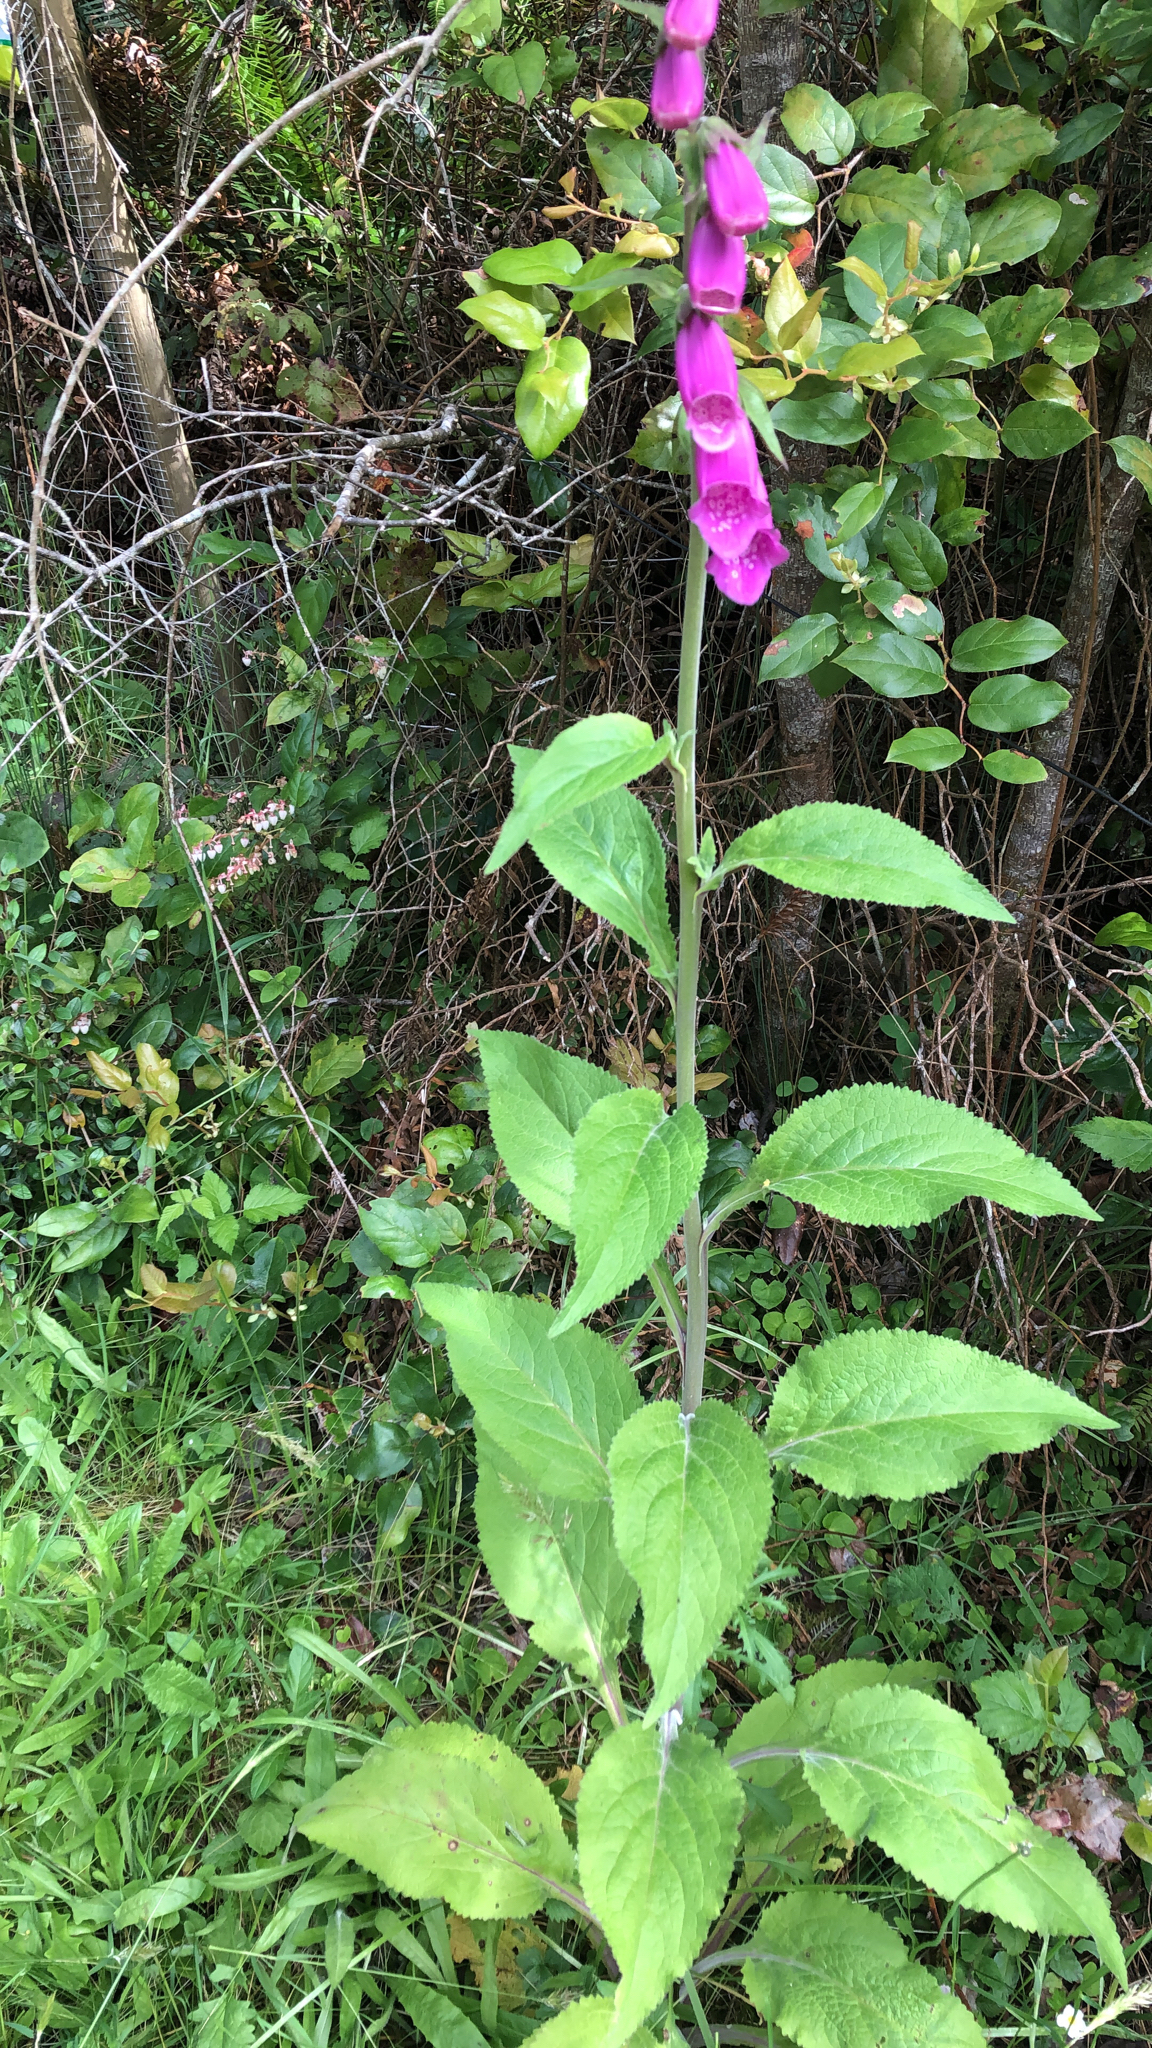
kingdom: Plantae
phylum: Tracheophyta
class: Magnoliopsida
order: Lamiales
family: Plantaginaceae
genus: Digitalis
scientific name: Digitalis purpurea
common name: Foxglove
